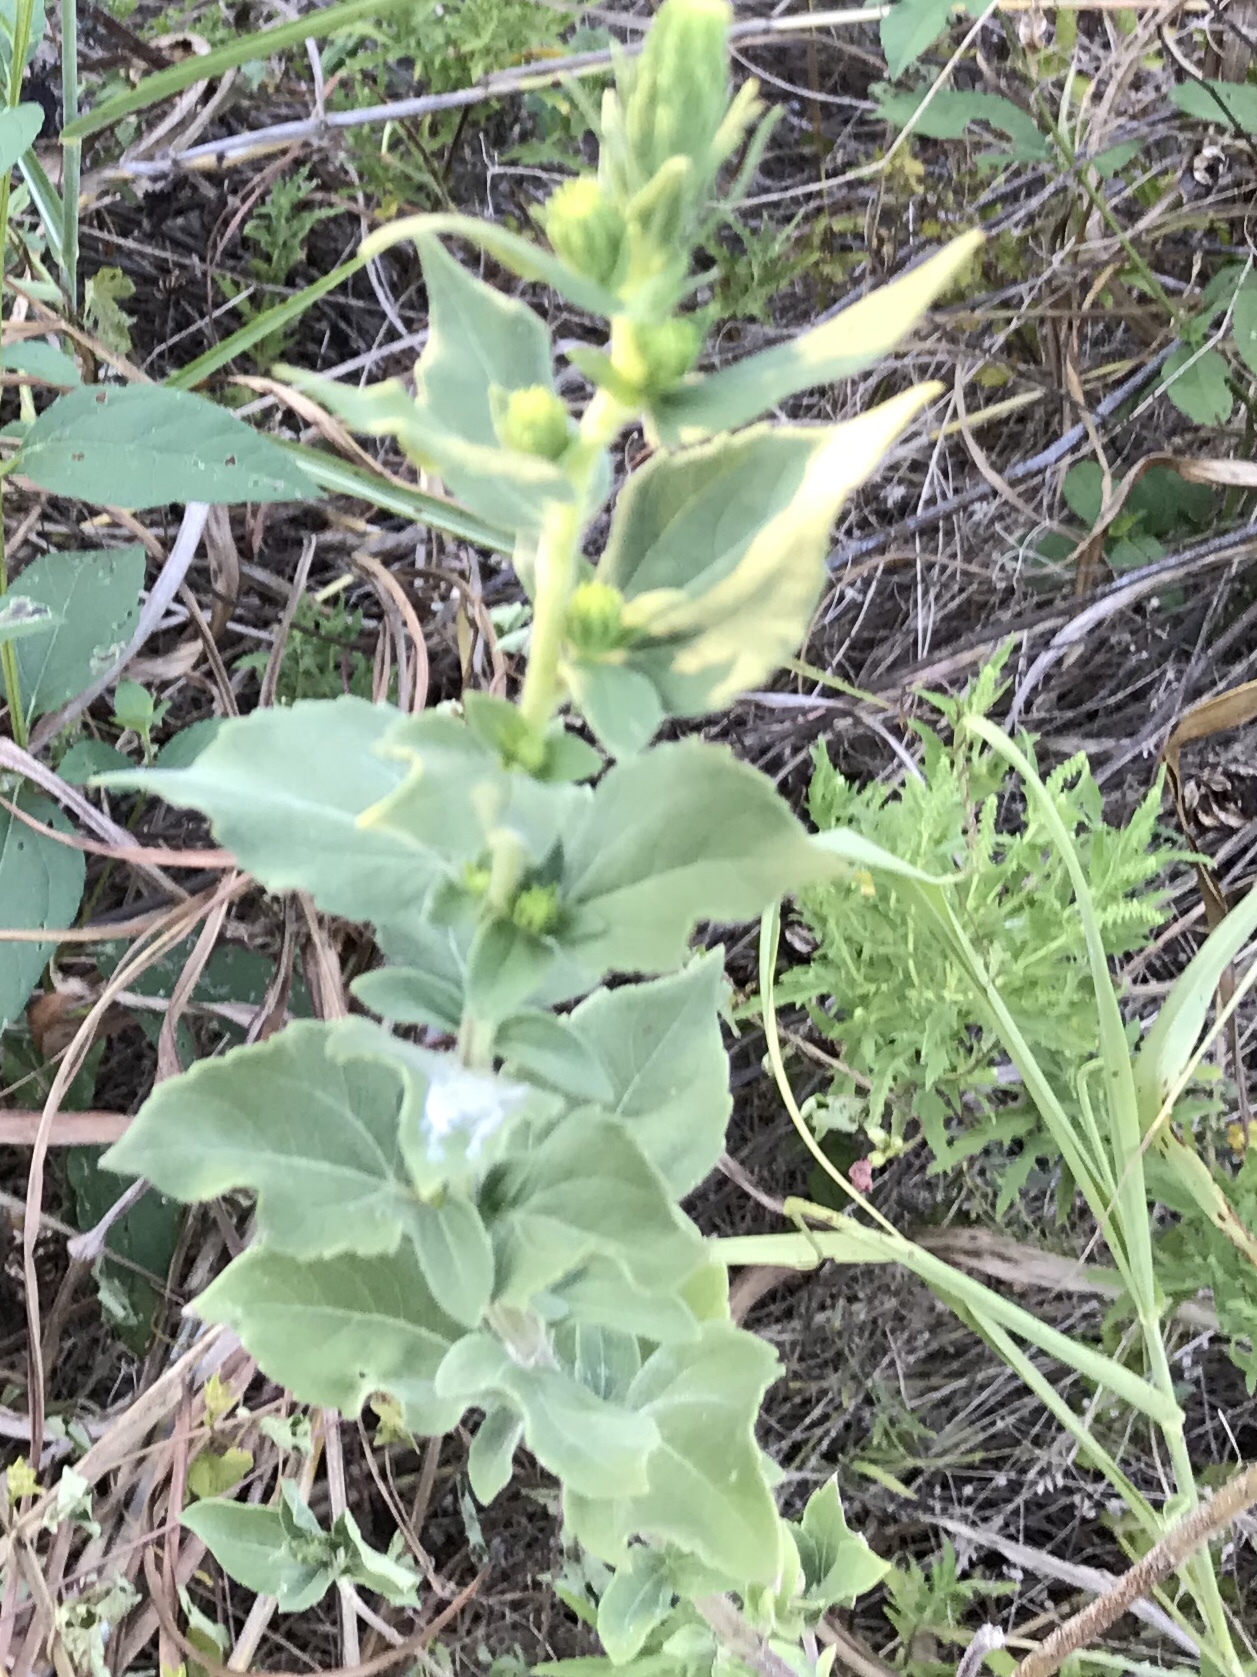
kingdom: Plantae
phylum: Tracheophyta
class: Magnoliopsida
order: Asterales
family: Asteraceae
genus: Iva
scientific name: Iva annua
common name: Marsh-elder
